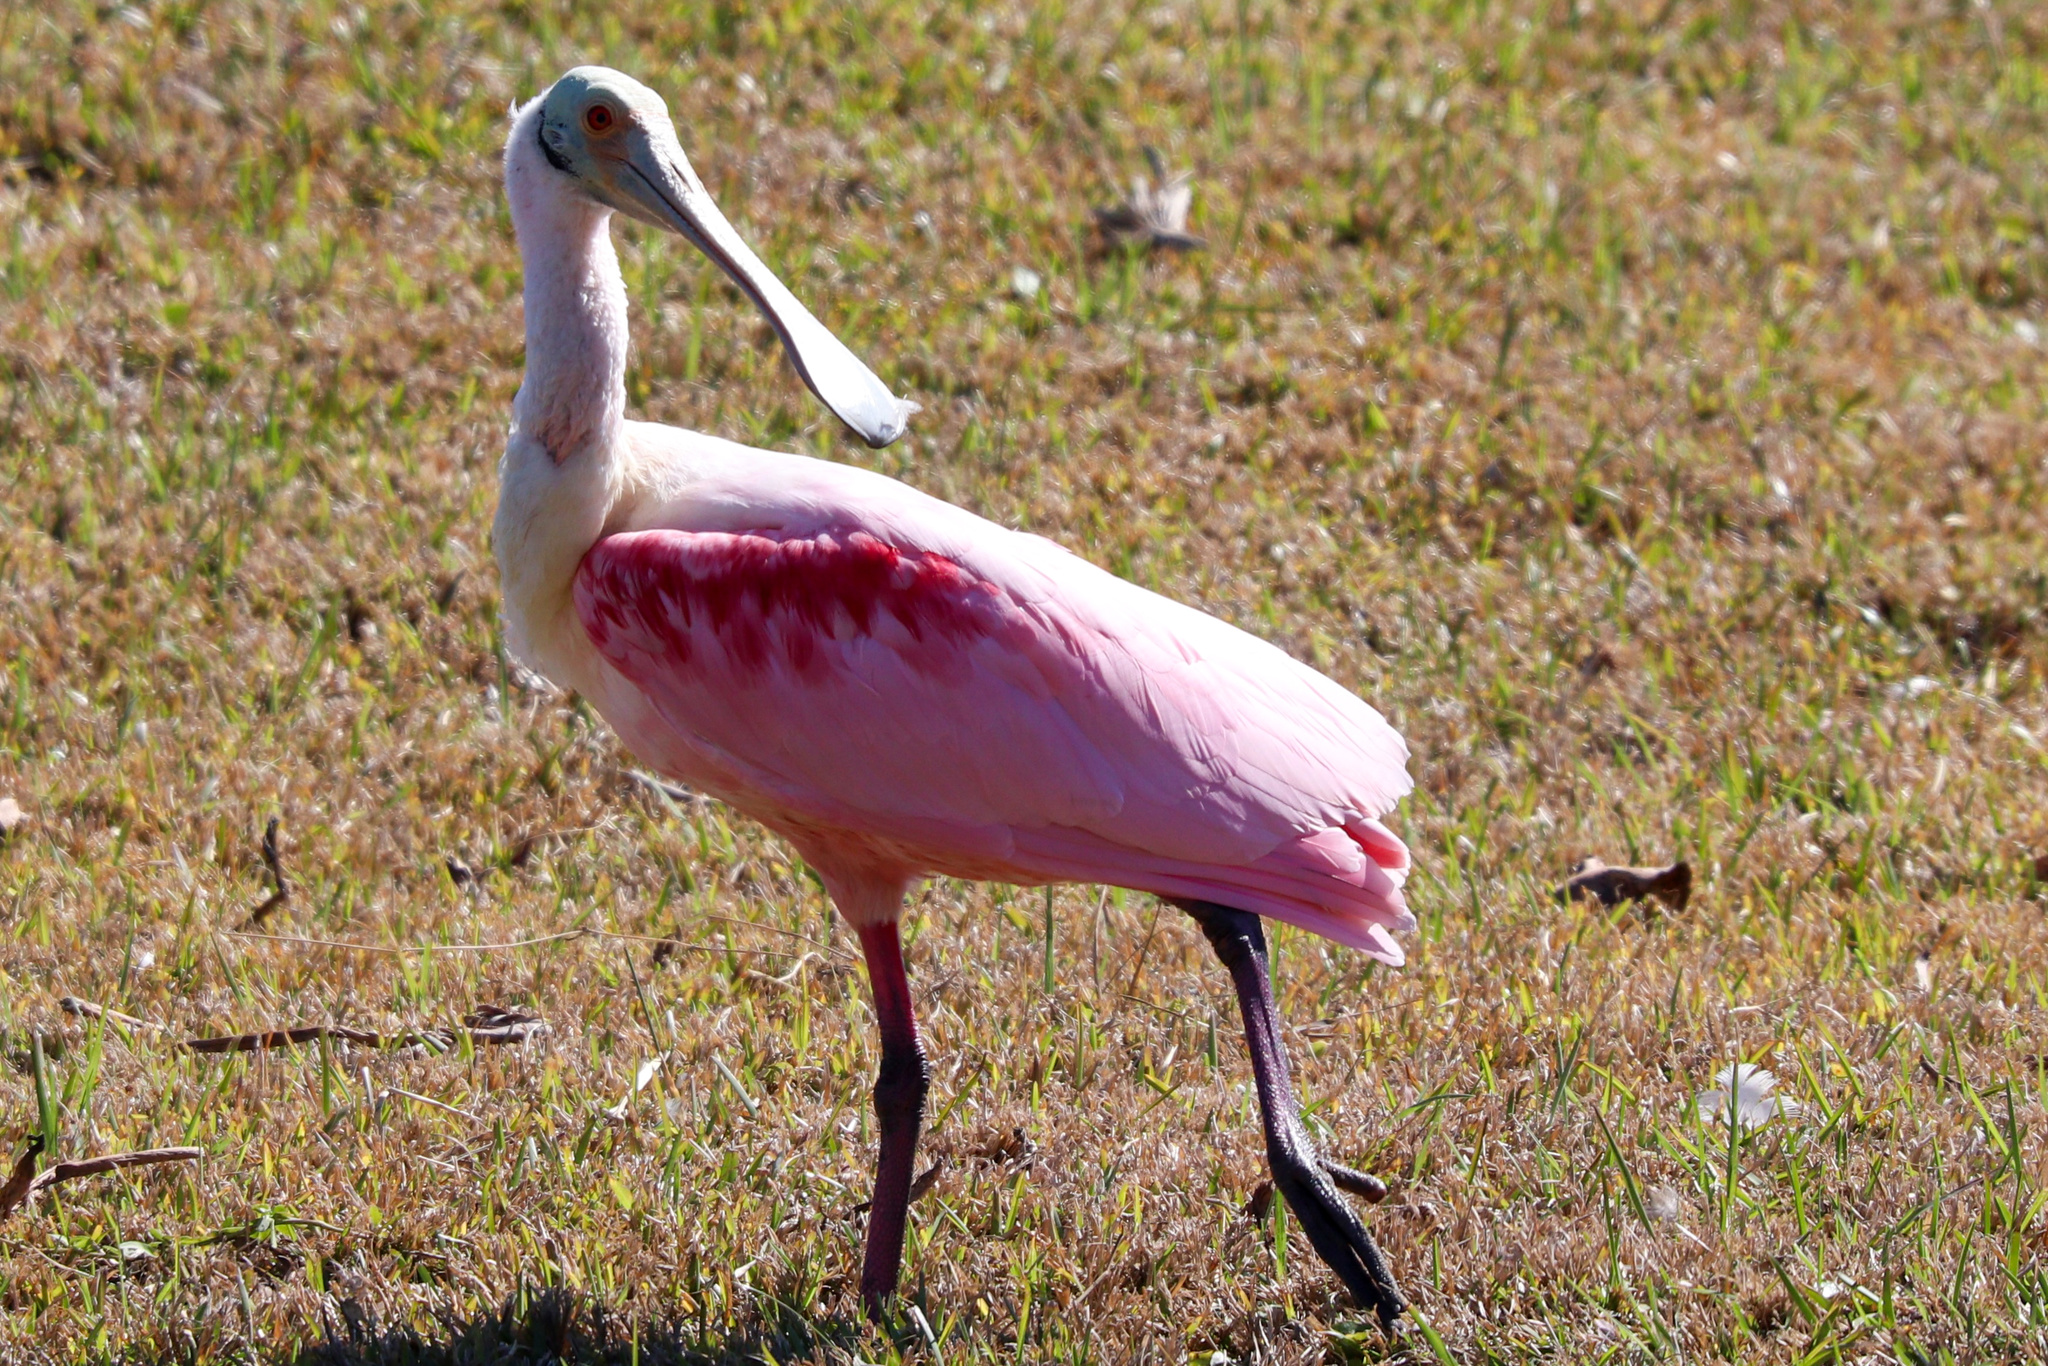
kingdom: Animalia
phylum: Chordata
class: Aves
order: Pelecaniformes
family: Threskiornithidae
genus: Platalea
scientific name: Platalea ajaja
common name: Roseate spoonbill
